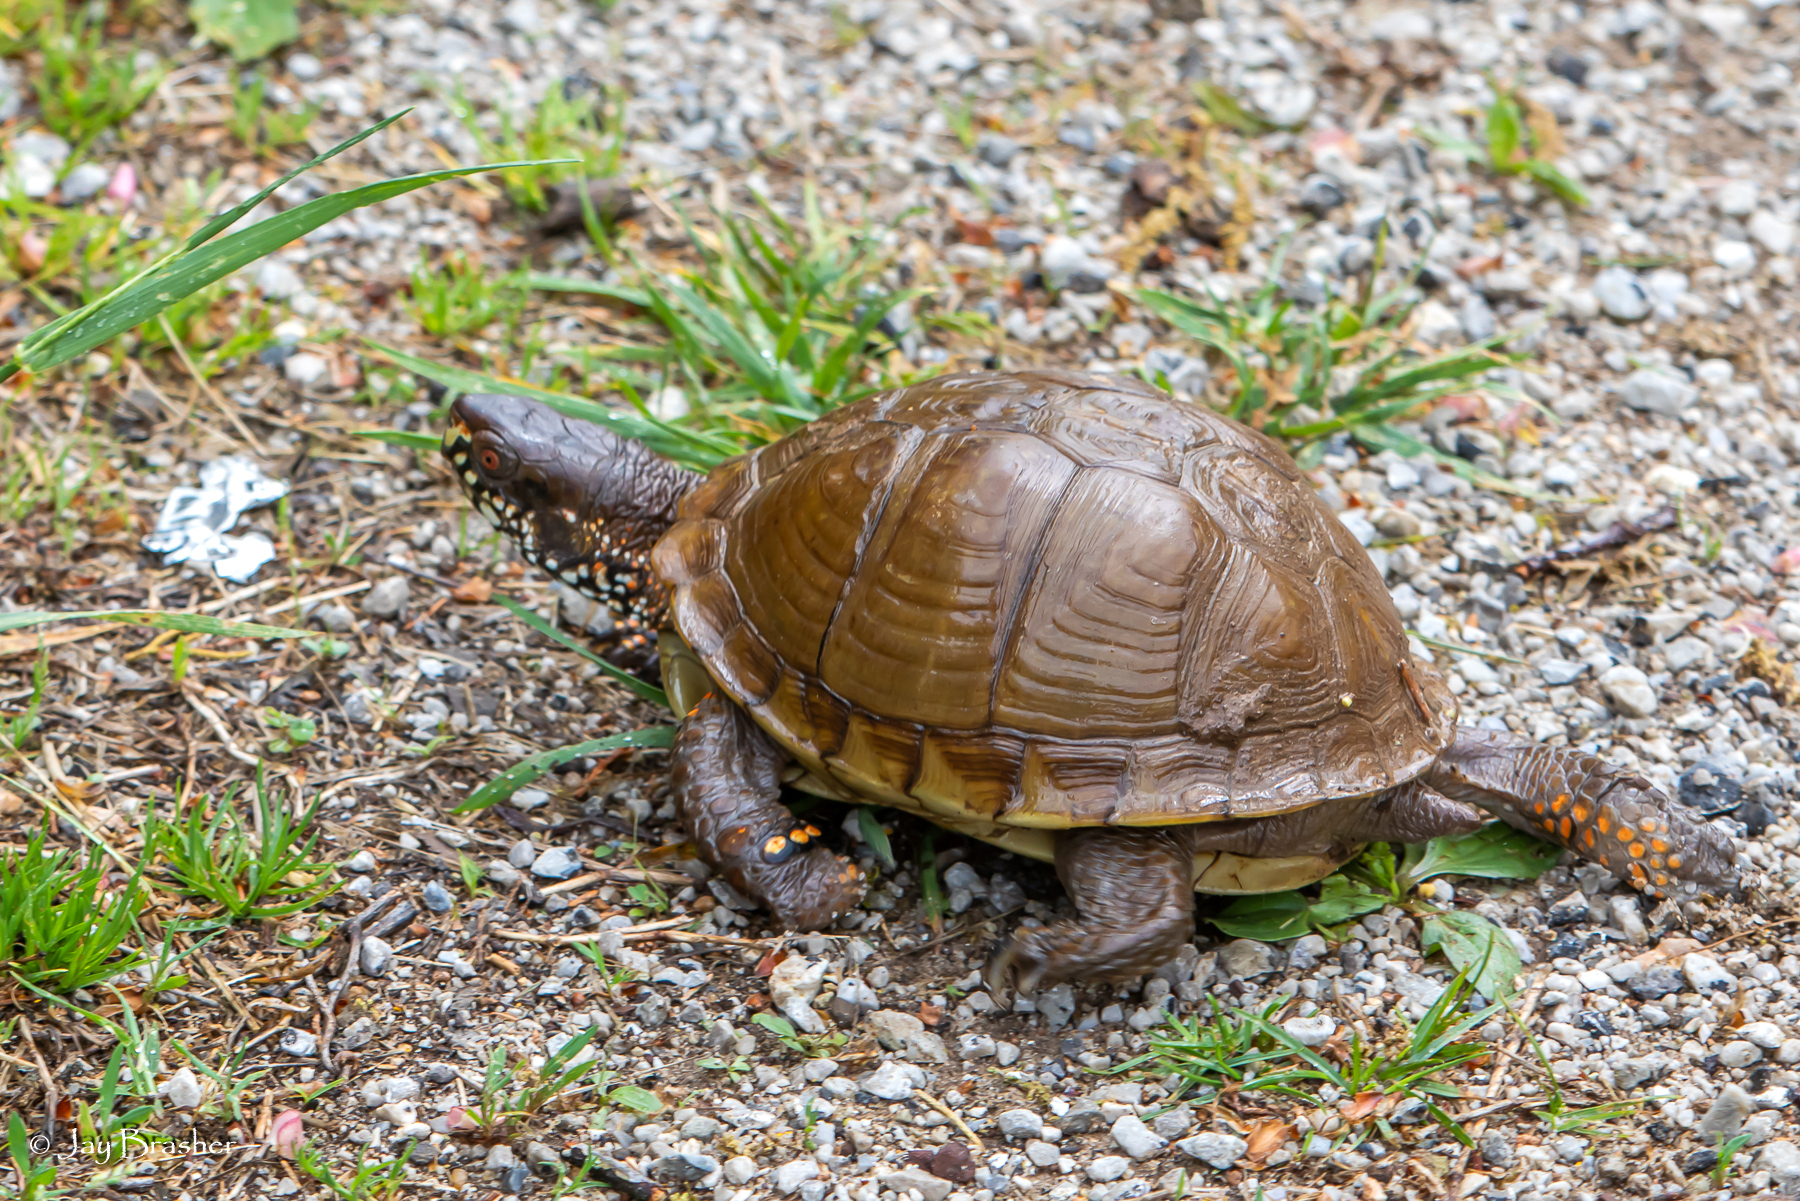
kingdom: Animalia
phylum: Chordata
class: Testudines
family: Emydidae
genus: Terrapene
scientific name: Terrapene carolina
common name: Common box turtle
